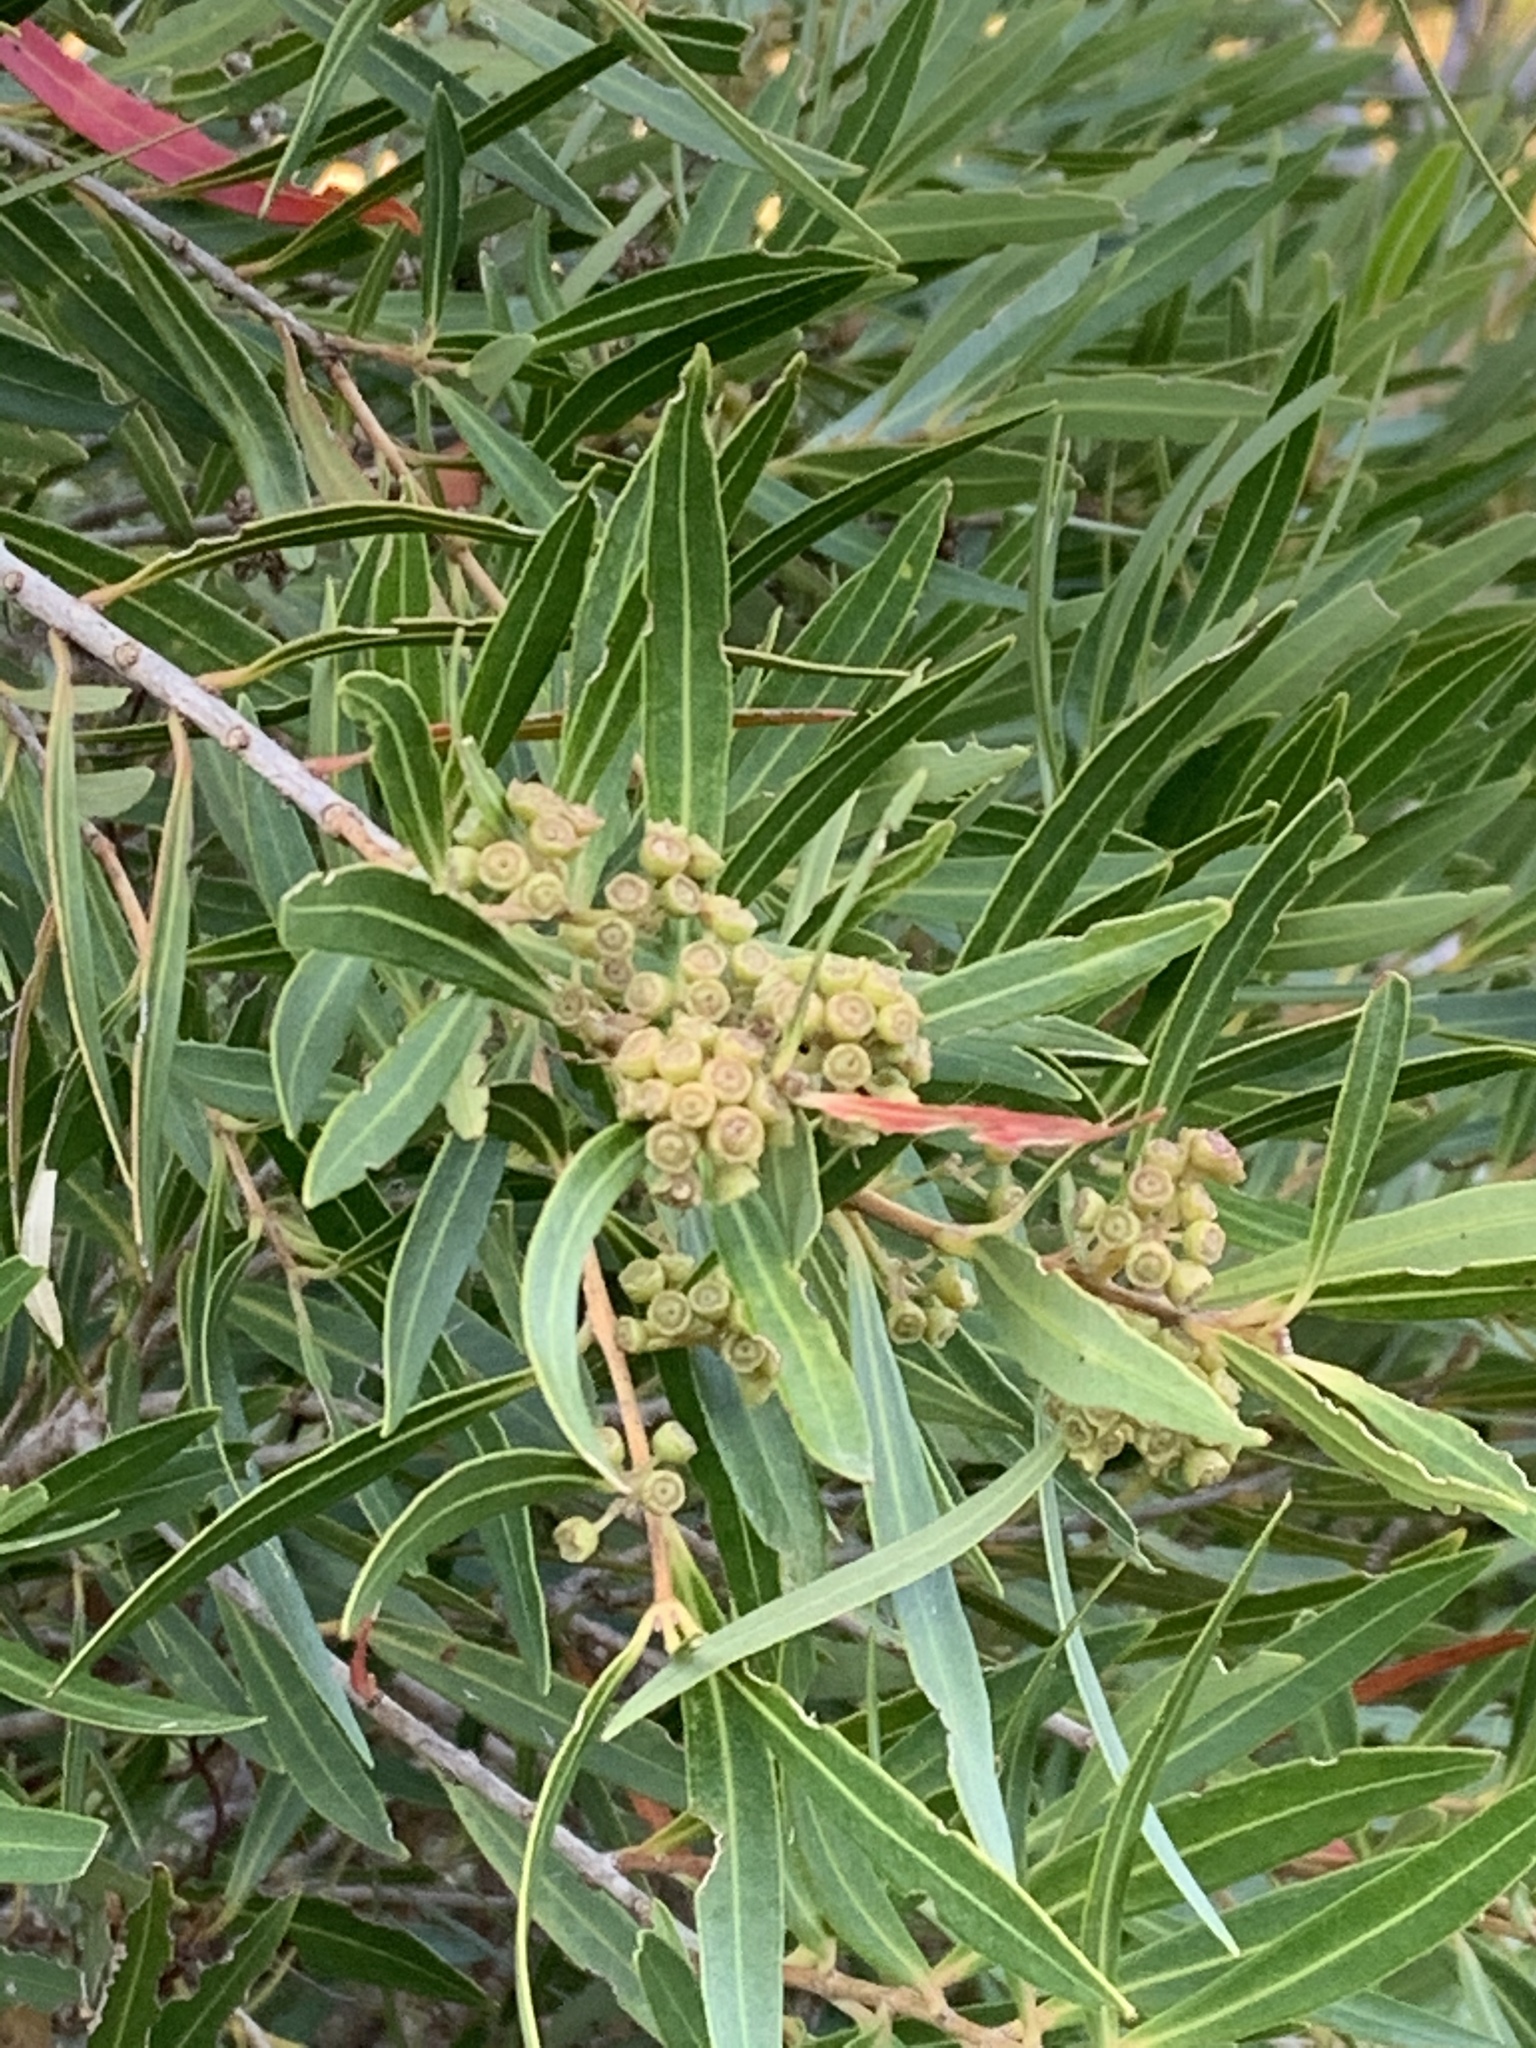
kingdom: Plantae
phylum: Tracheophyta
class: Magnoliopsida
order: Myrtales
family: Myrtaceae
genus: Callistemon
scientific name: Callistemon lanceolatus
